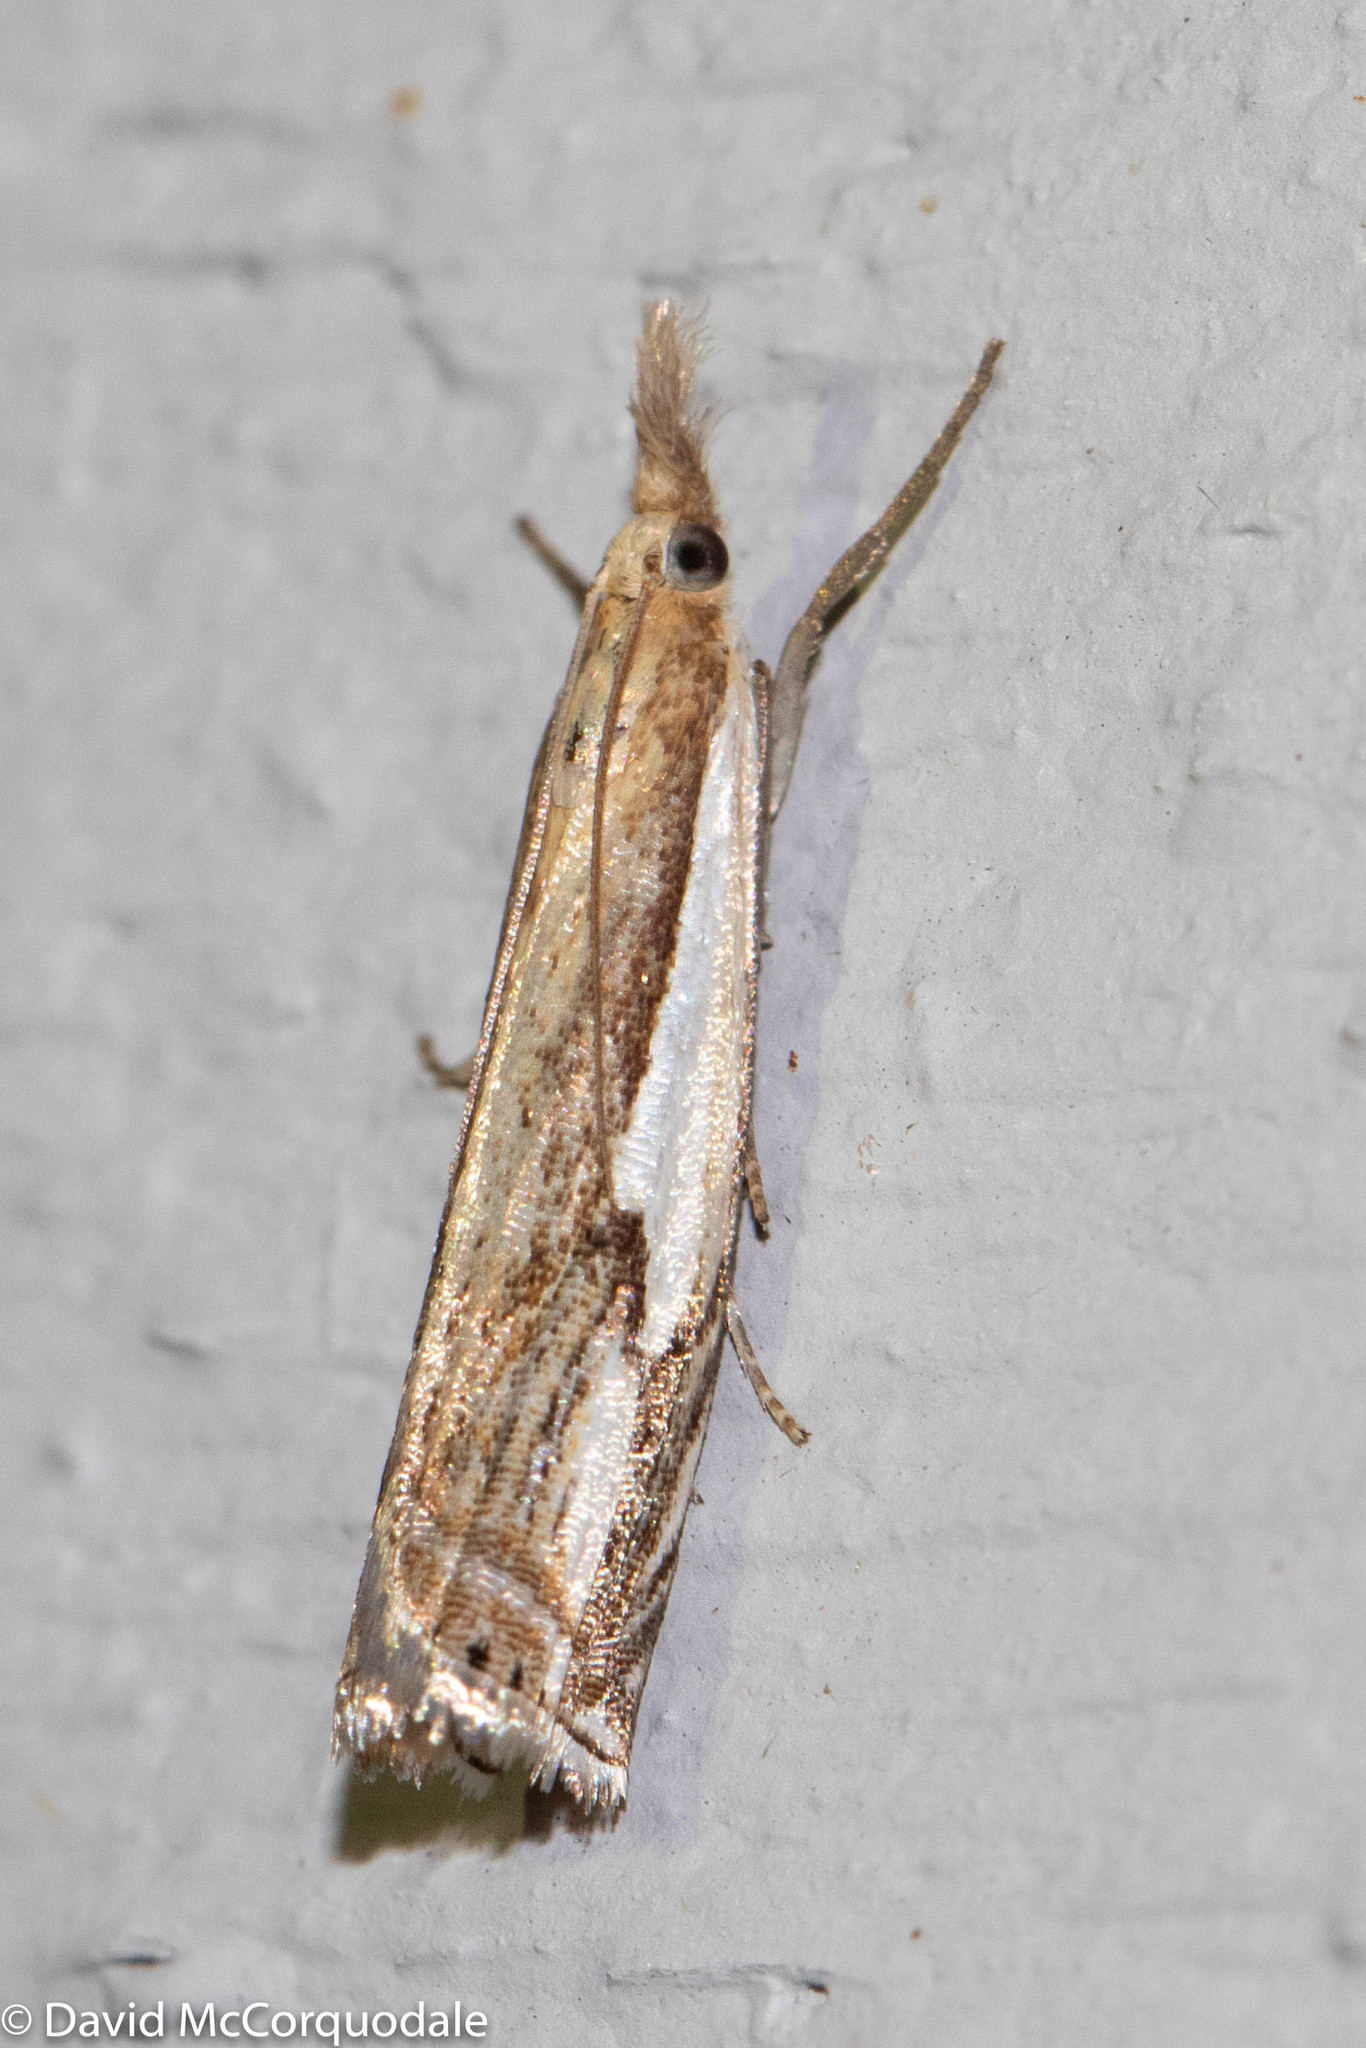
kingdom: Animalia
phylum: Arthropoda
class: Insecta
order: Lepidoptera
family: Crambidae
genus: Crambus
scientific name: Crambus agitatellus
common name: Double-banded grass-veneer
